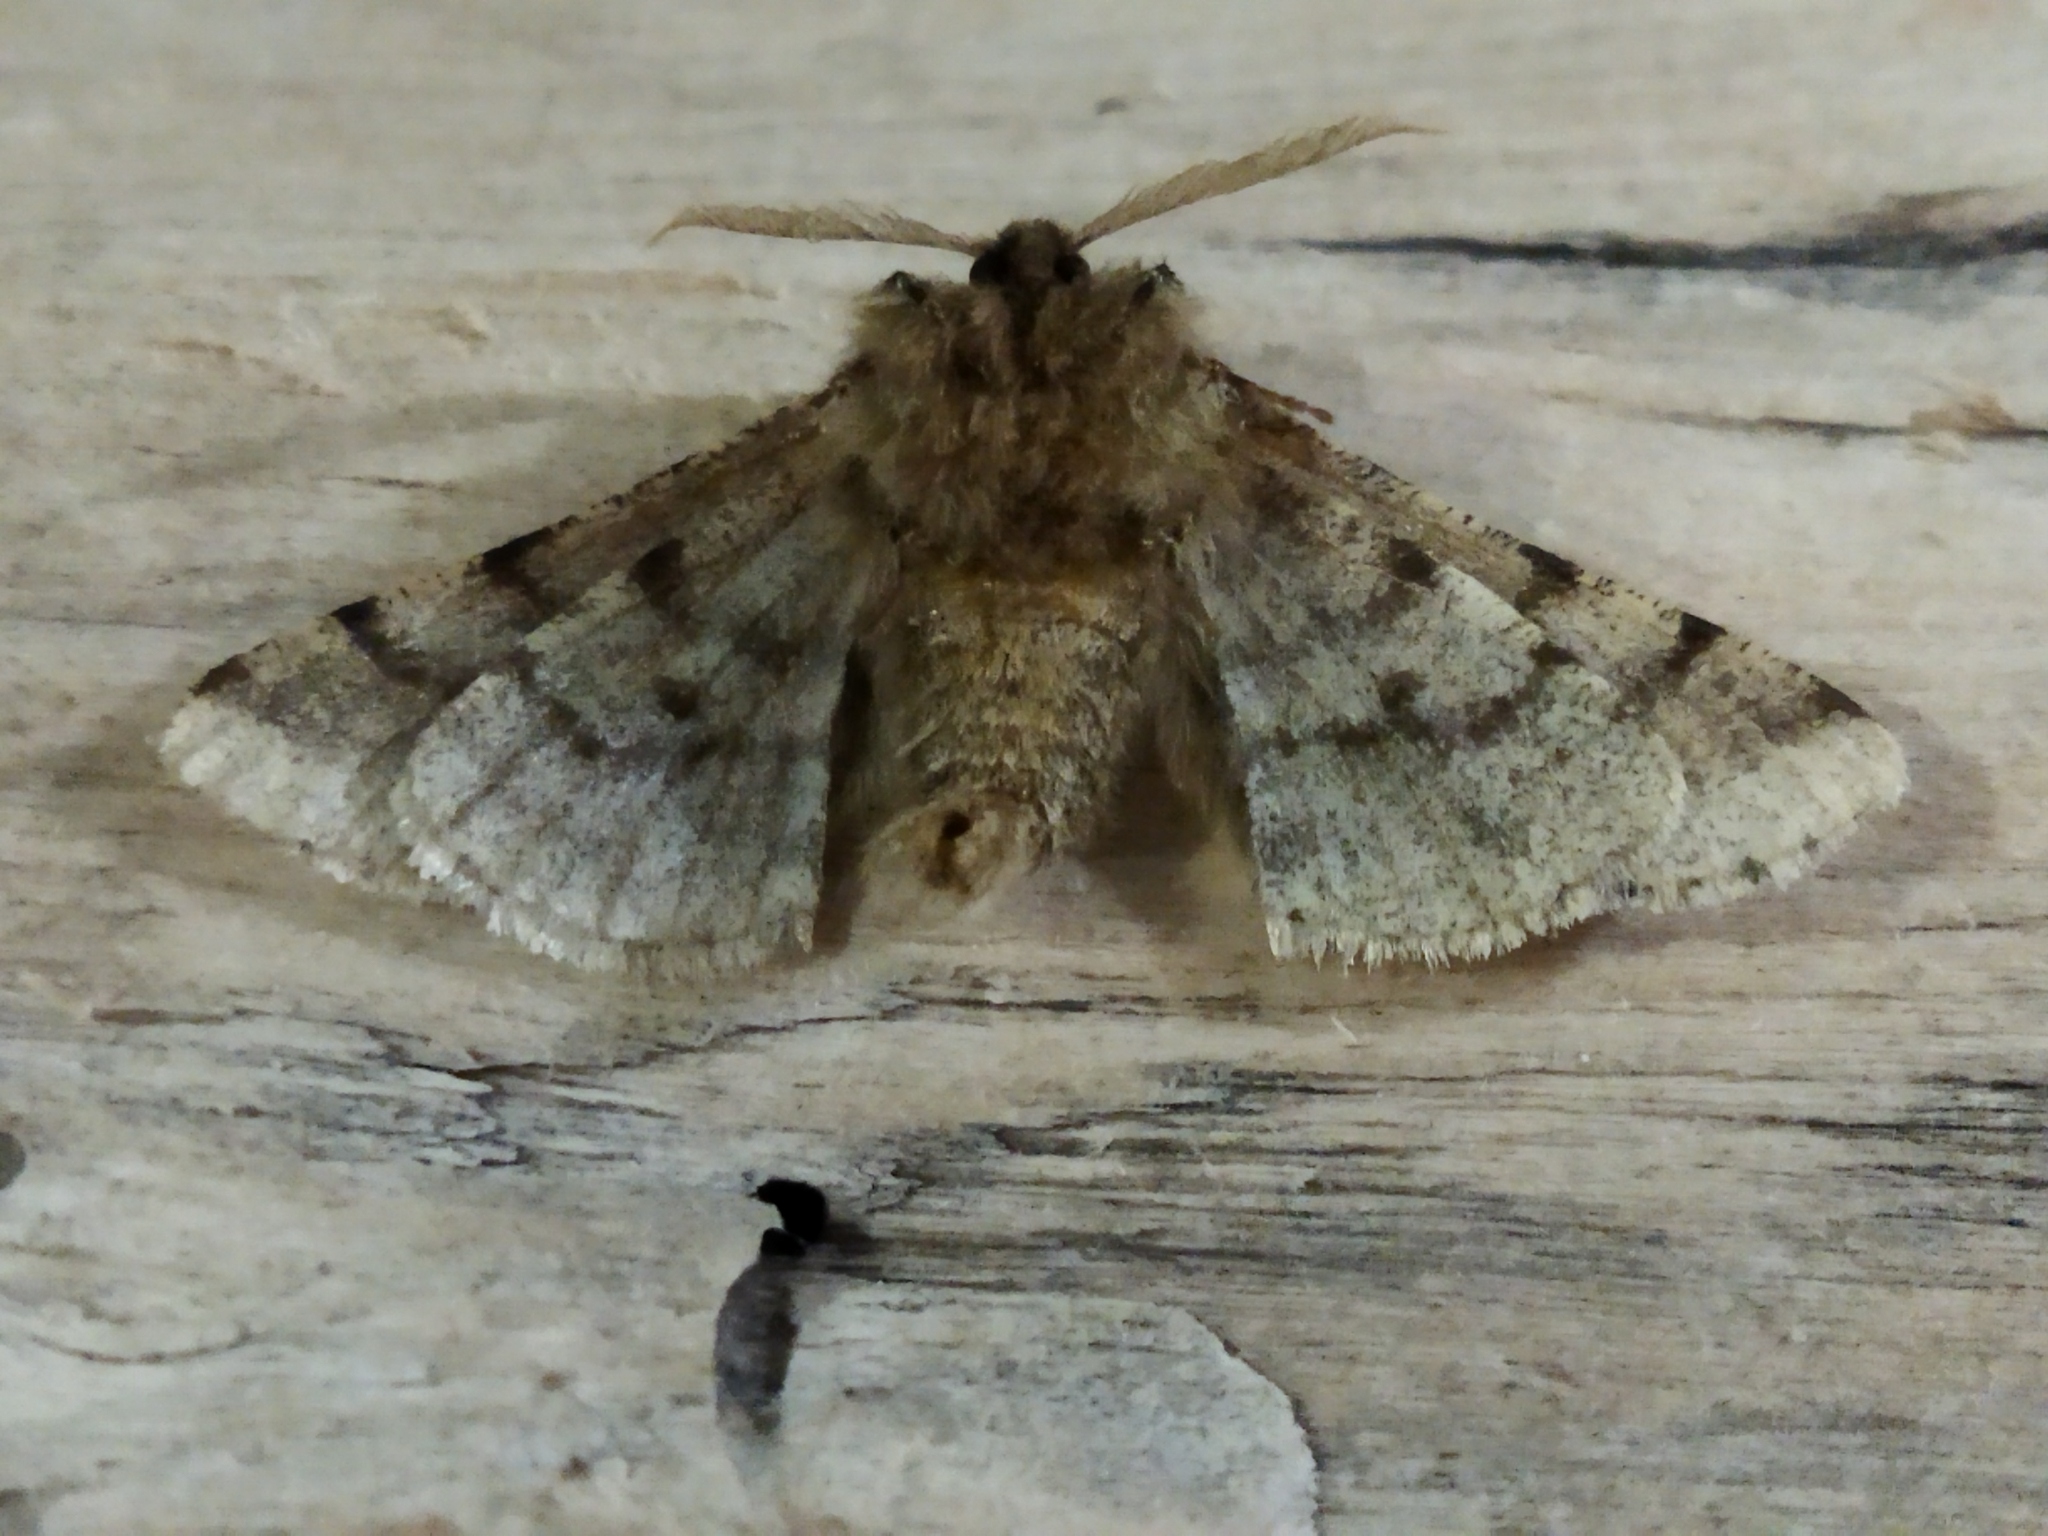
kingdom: Animalia
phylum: Arthropoda
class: Insecta
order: Lepidoptera
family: Geometridae
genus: Lycia
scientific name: Lycia hirtaria
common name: Brindled beauty
